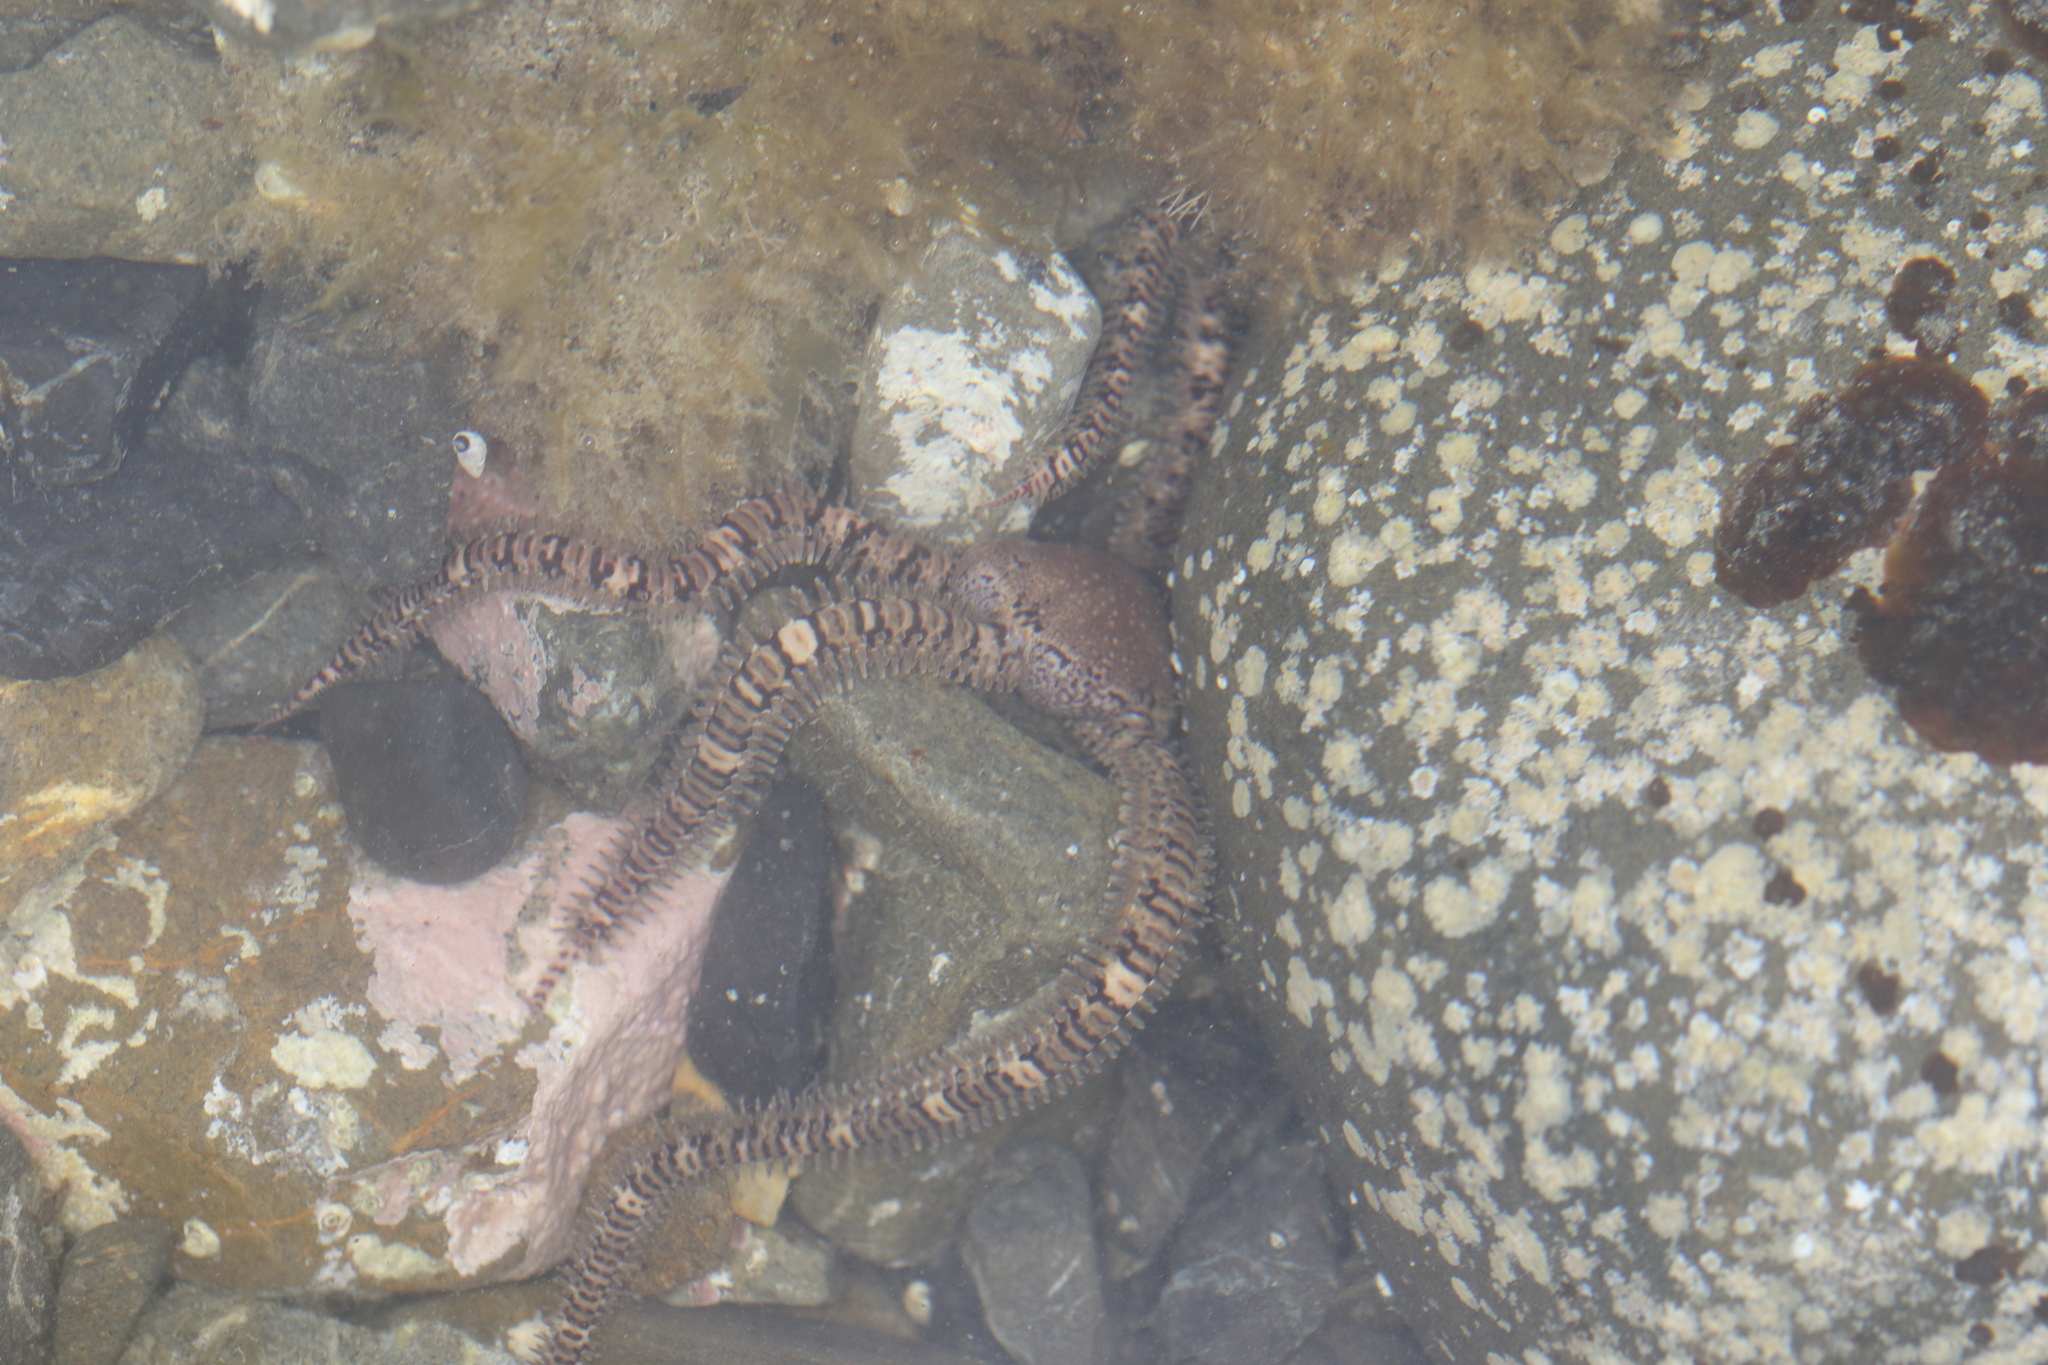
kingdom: Animalia
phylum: Echinodermata
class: Ophiuroidea
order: Amphilepidida
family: Ophionereididae
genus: Ophionereis
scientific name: Ophionereis fasciata
